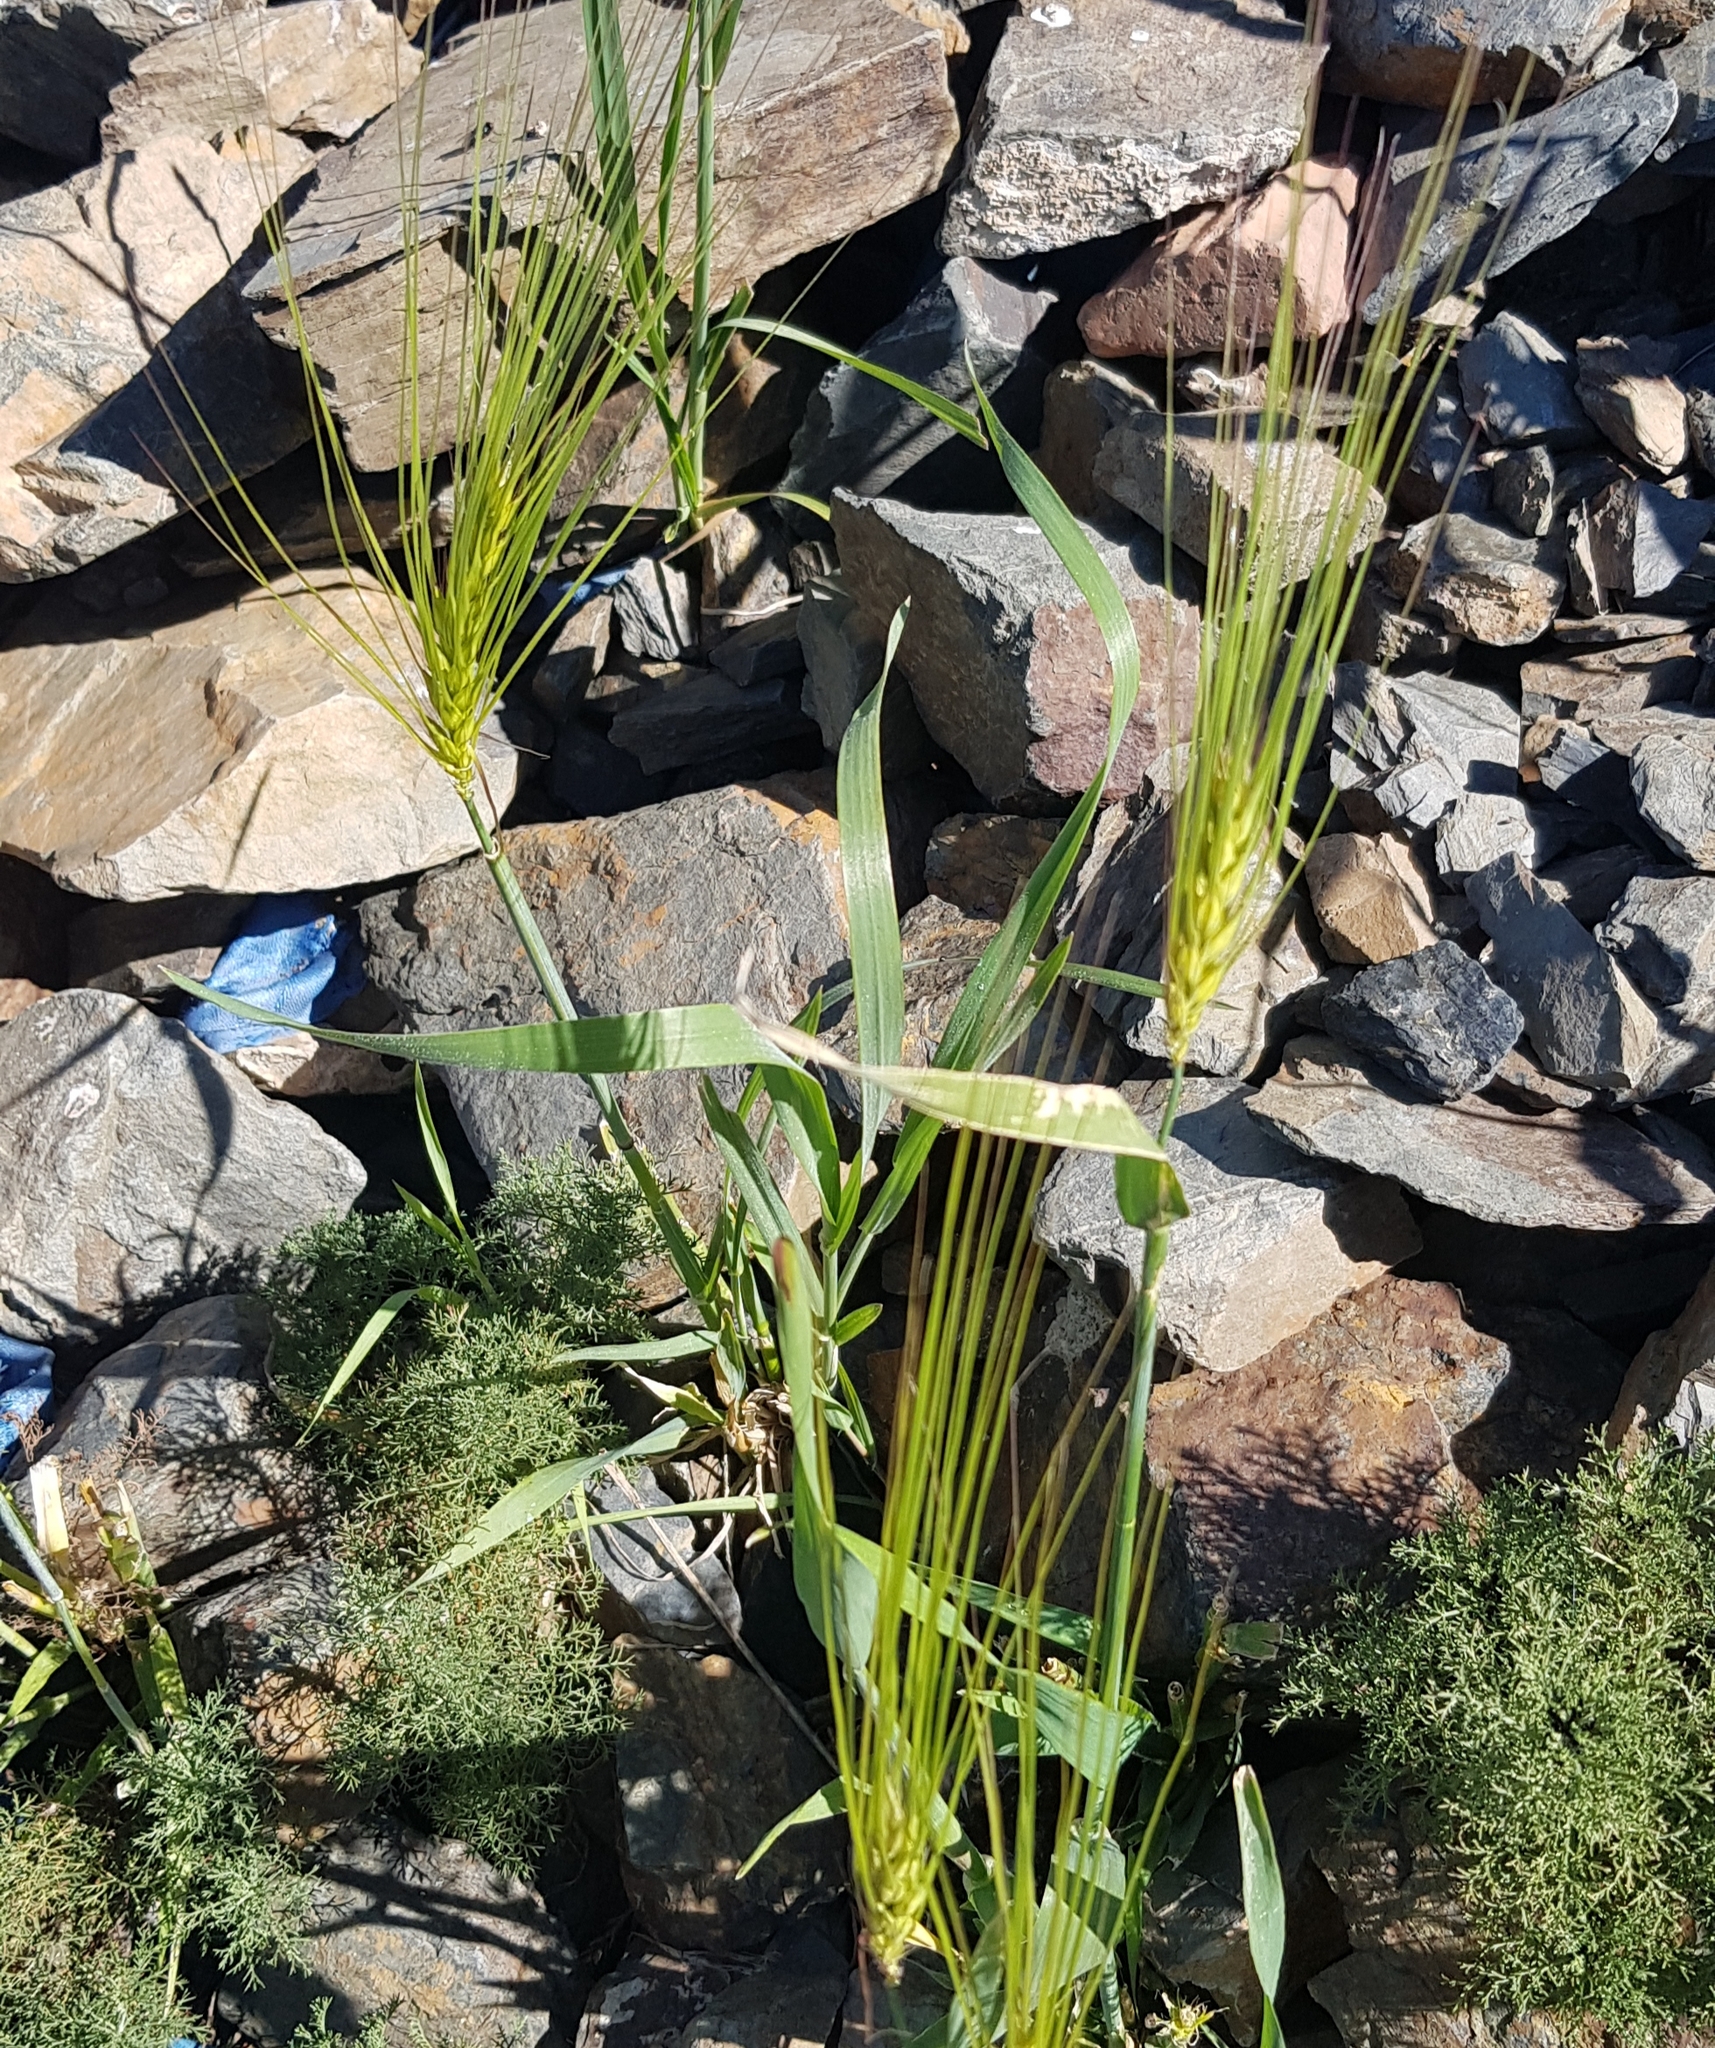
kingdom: Plantae
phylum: Tracheophyta
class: Liliopsida
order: Poales
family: Poaceae
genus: Hordeum
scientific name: Hordeum vulgare
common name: Common barley
